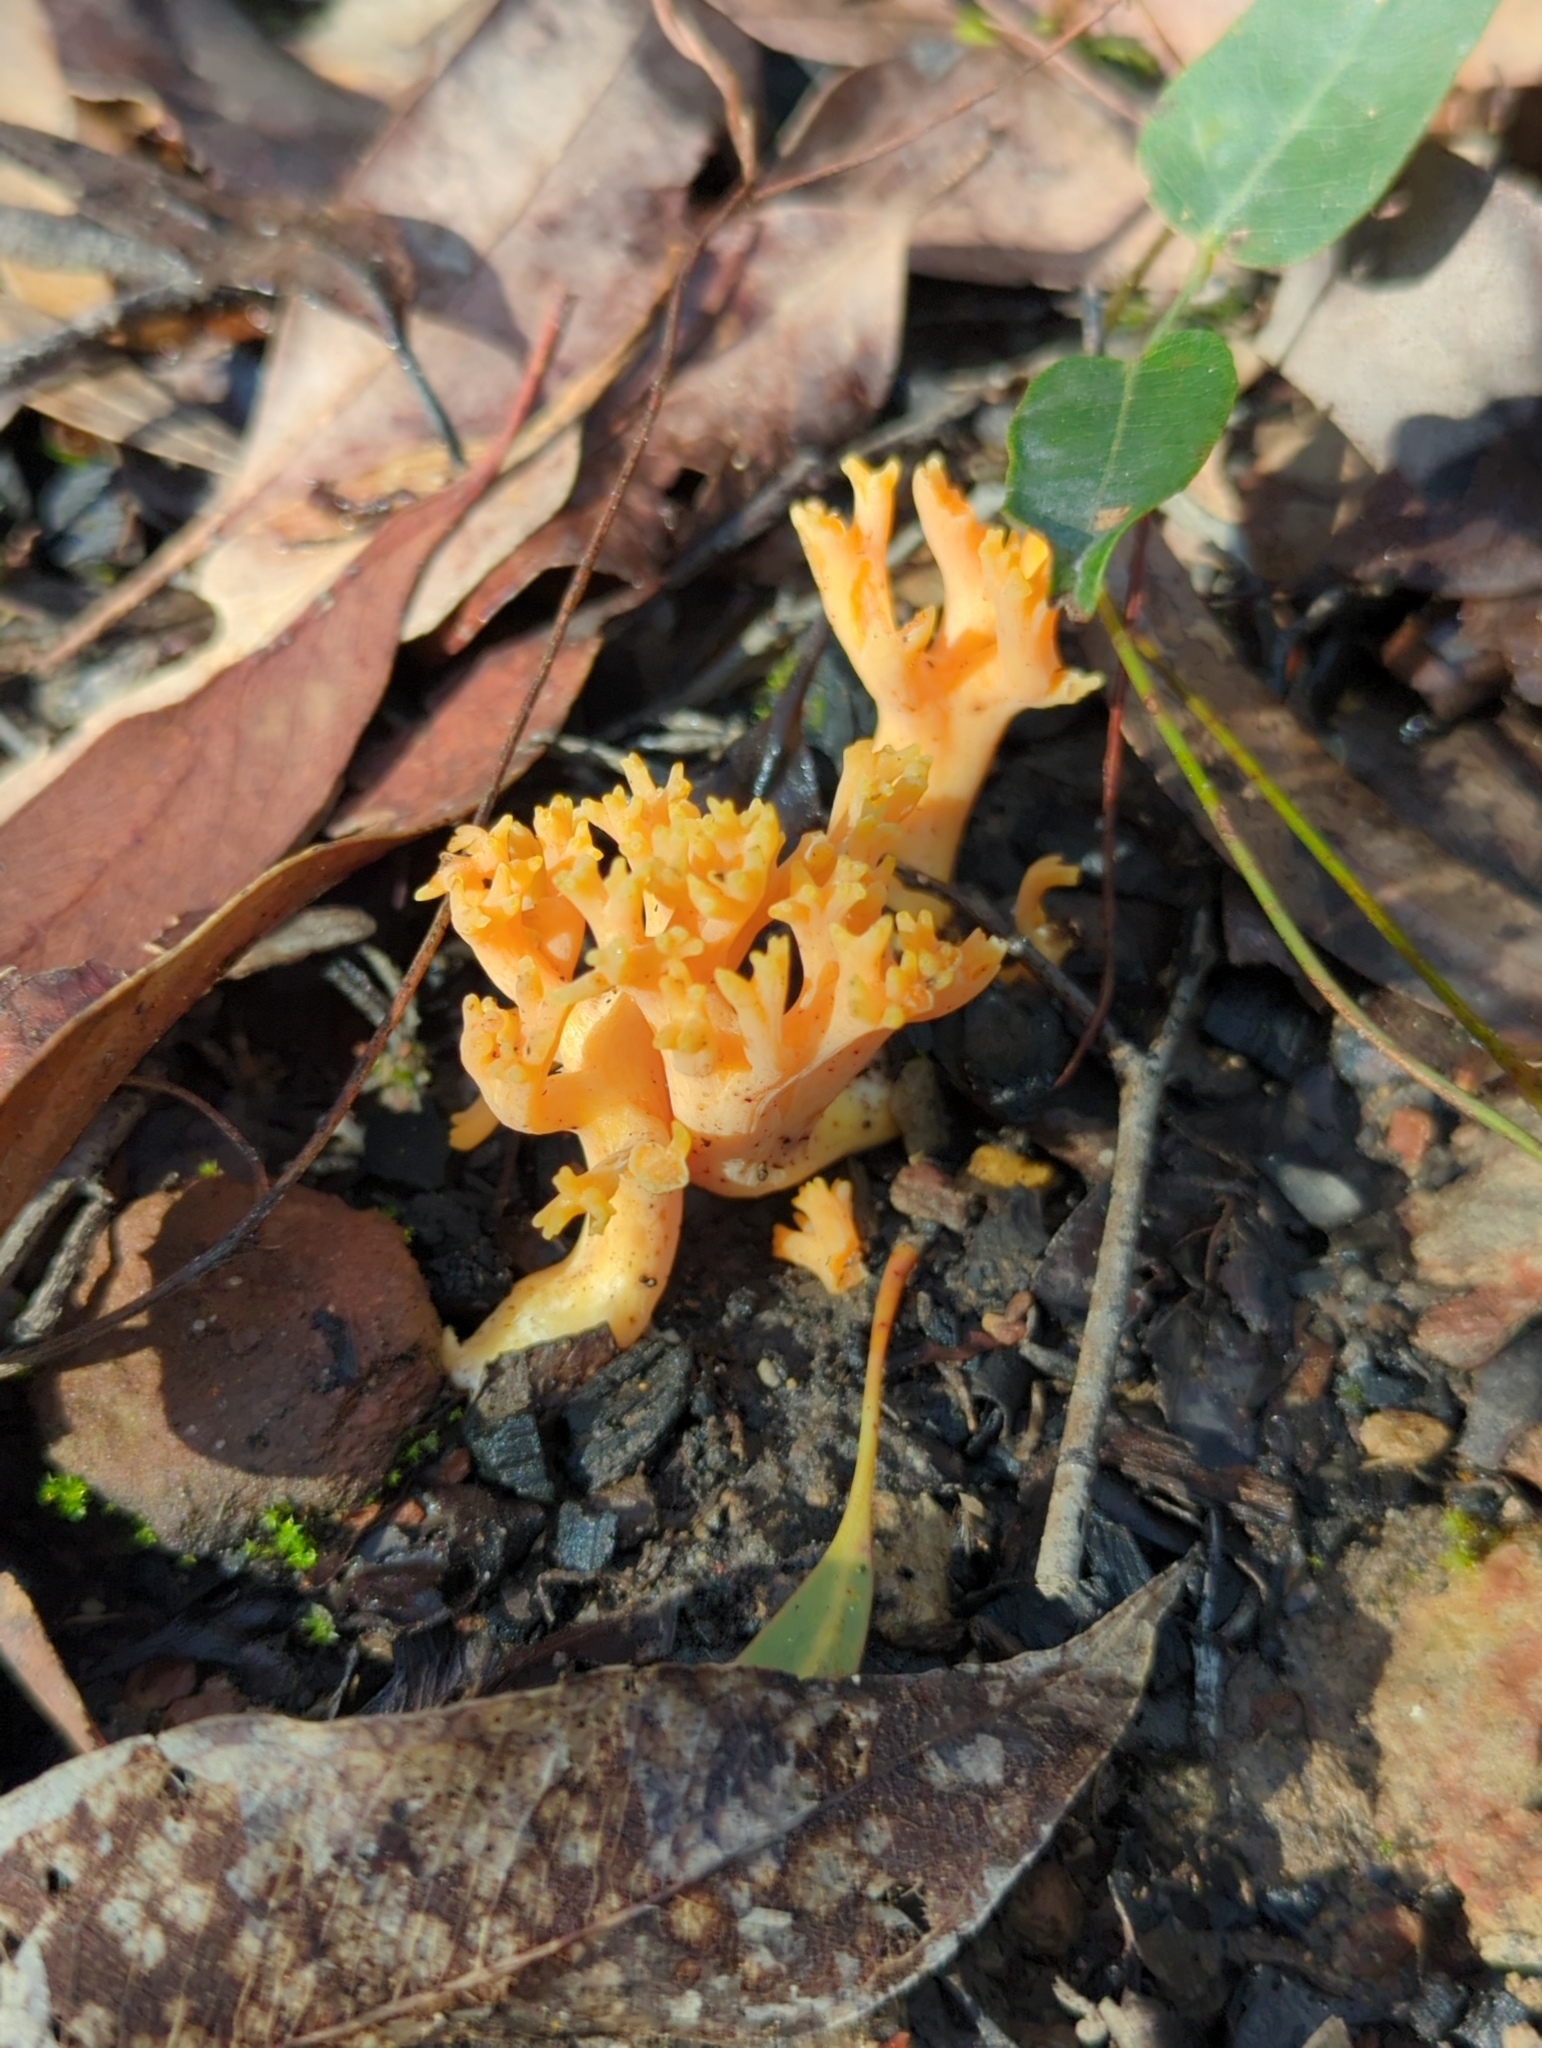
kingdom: Fungi
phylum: Basidiomycota
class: Agaricomycetes
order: Gomphales
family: Gomphaceae
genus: Ramaria
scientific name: Ramaria lorithamnus
